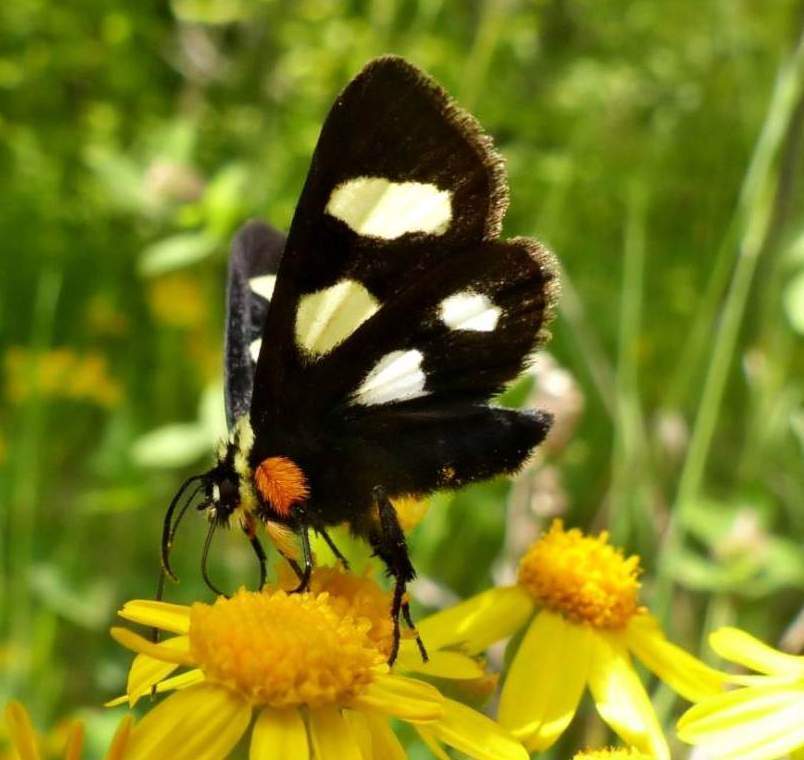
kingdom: Animalia
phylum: Arthropoda
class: Insecta
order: Lepidoptera
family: Noctuidae
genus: Alypia
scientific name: Alypia octomaculata
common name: Eight-spotted forester
